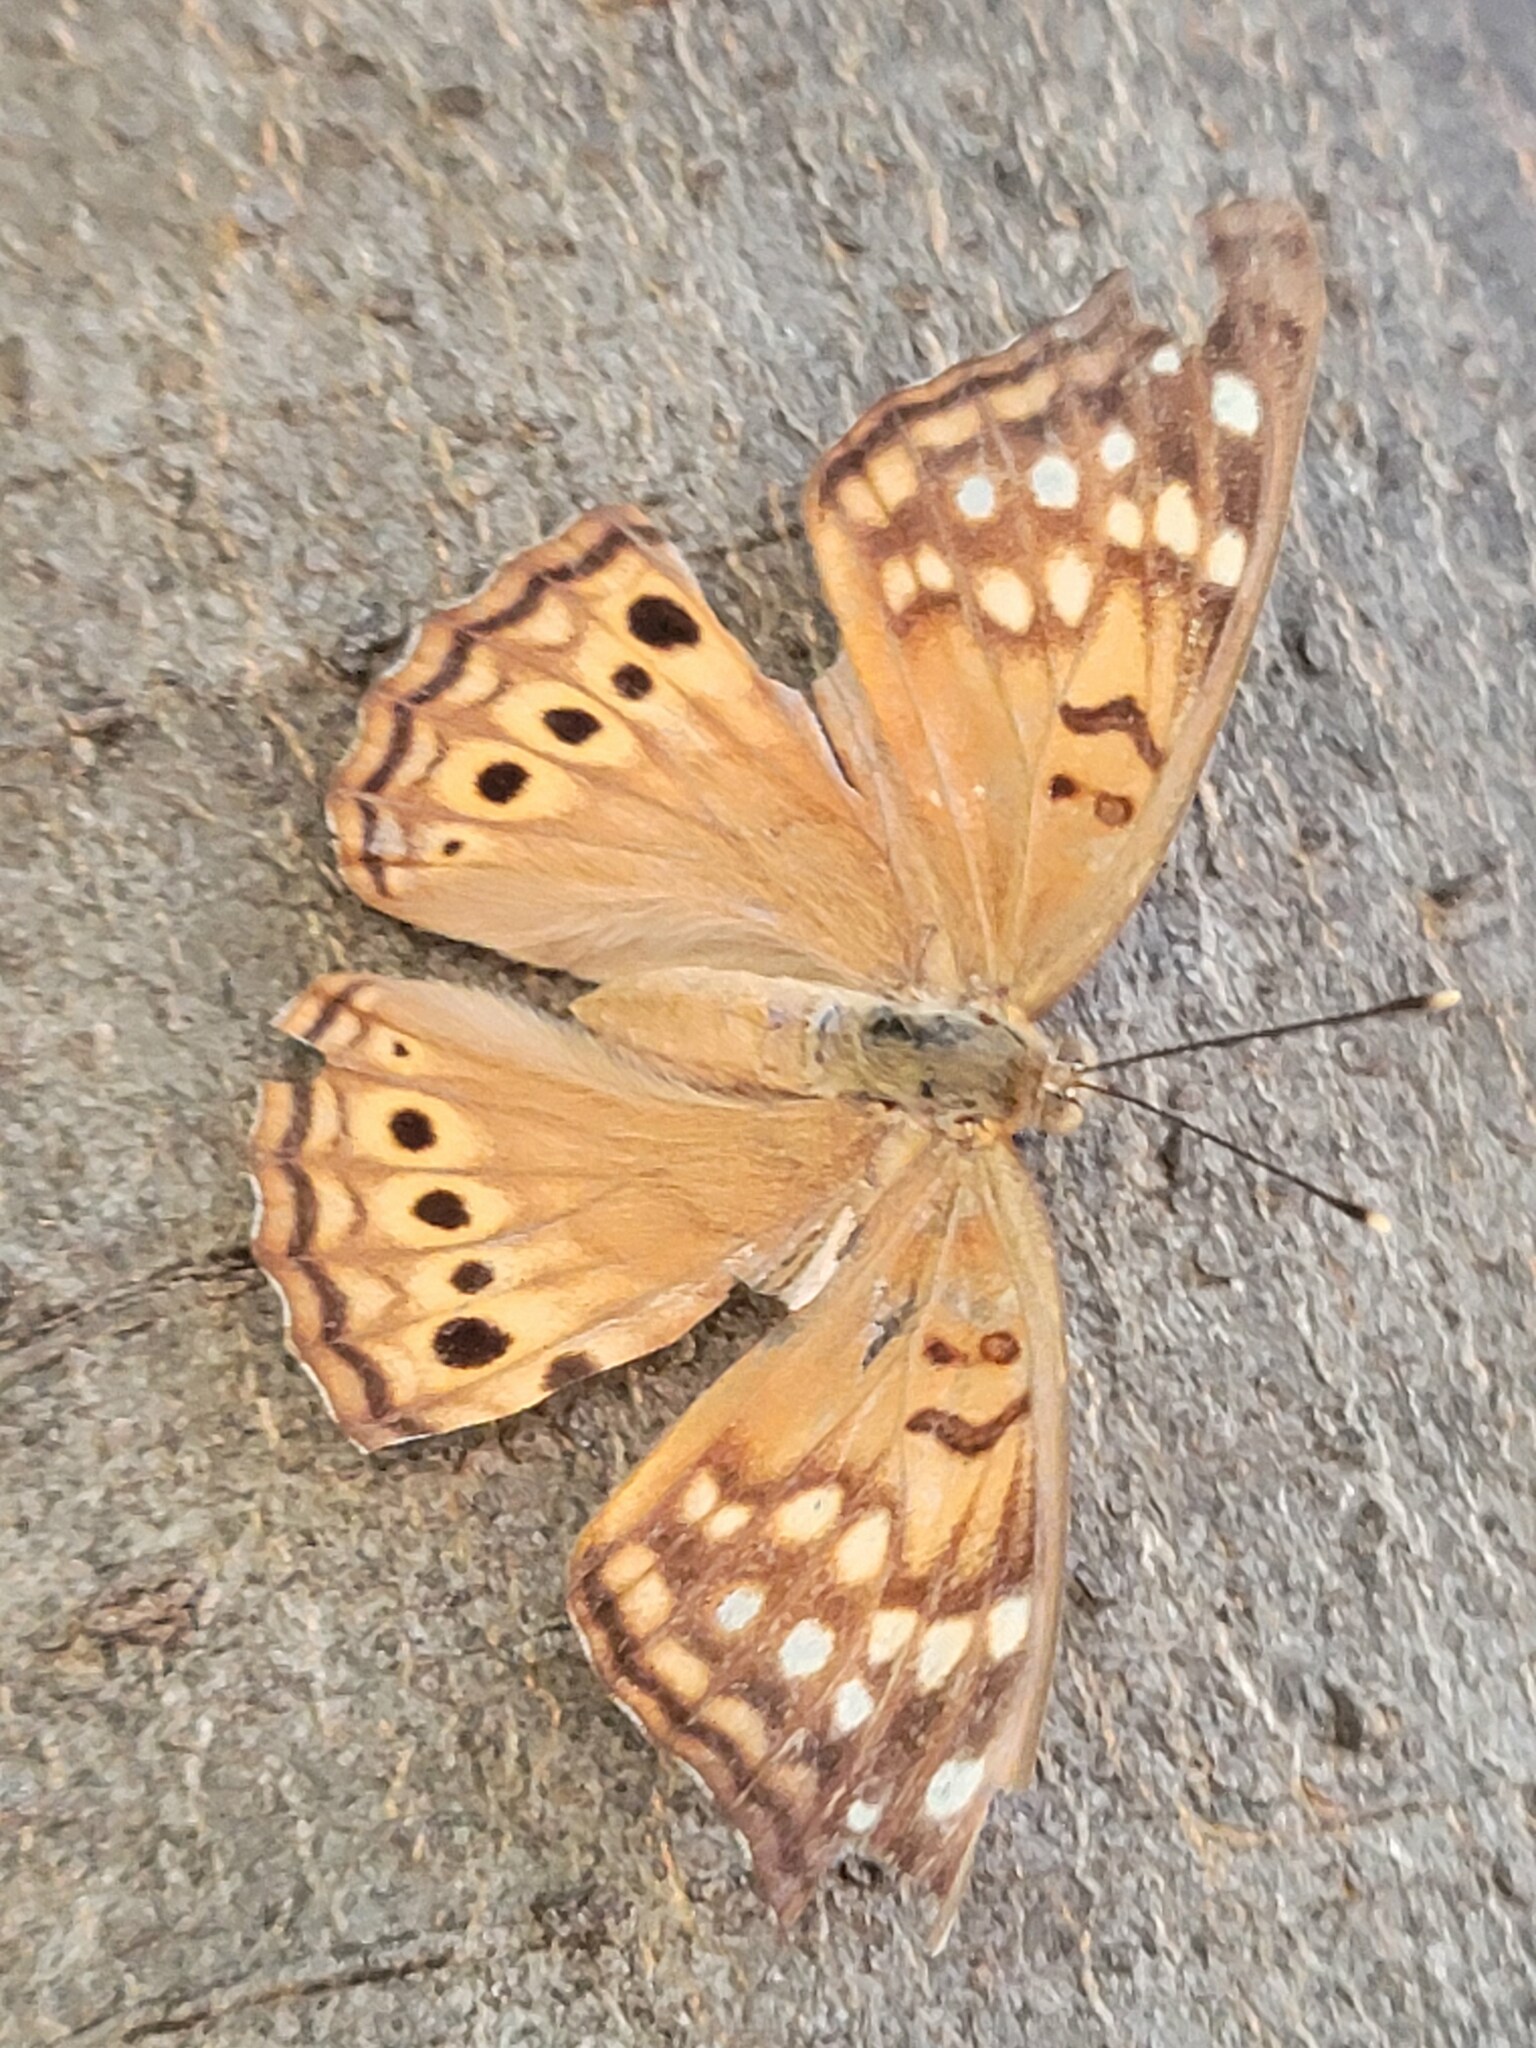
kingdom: Animalia
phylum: Arthropoda
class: Insecta
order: Lepidoptera
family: Nymphalidae
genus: Asterocampa
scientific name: Asterocampa clyton
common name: Tawny emperor
